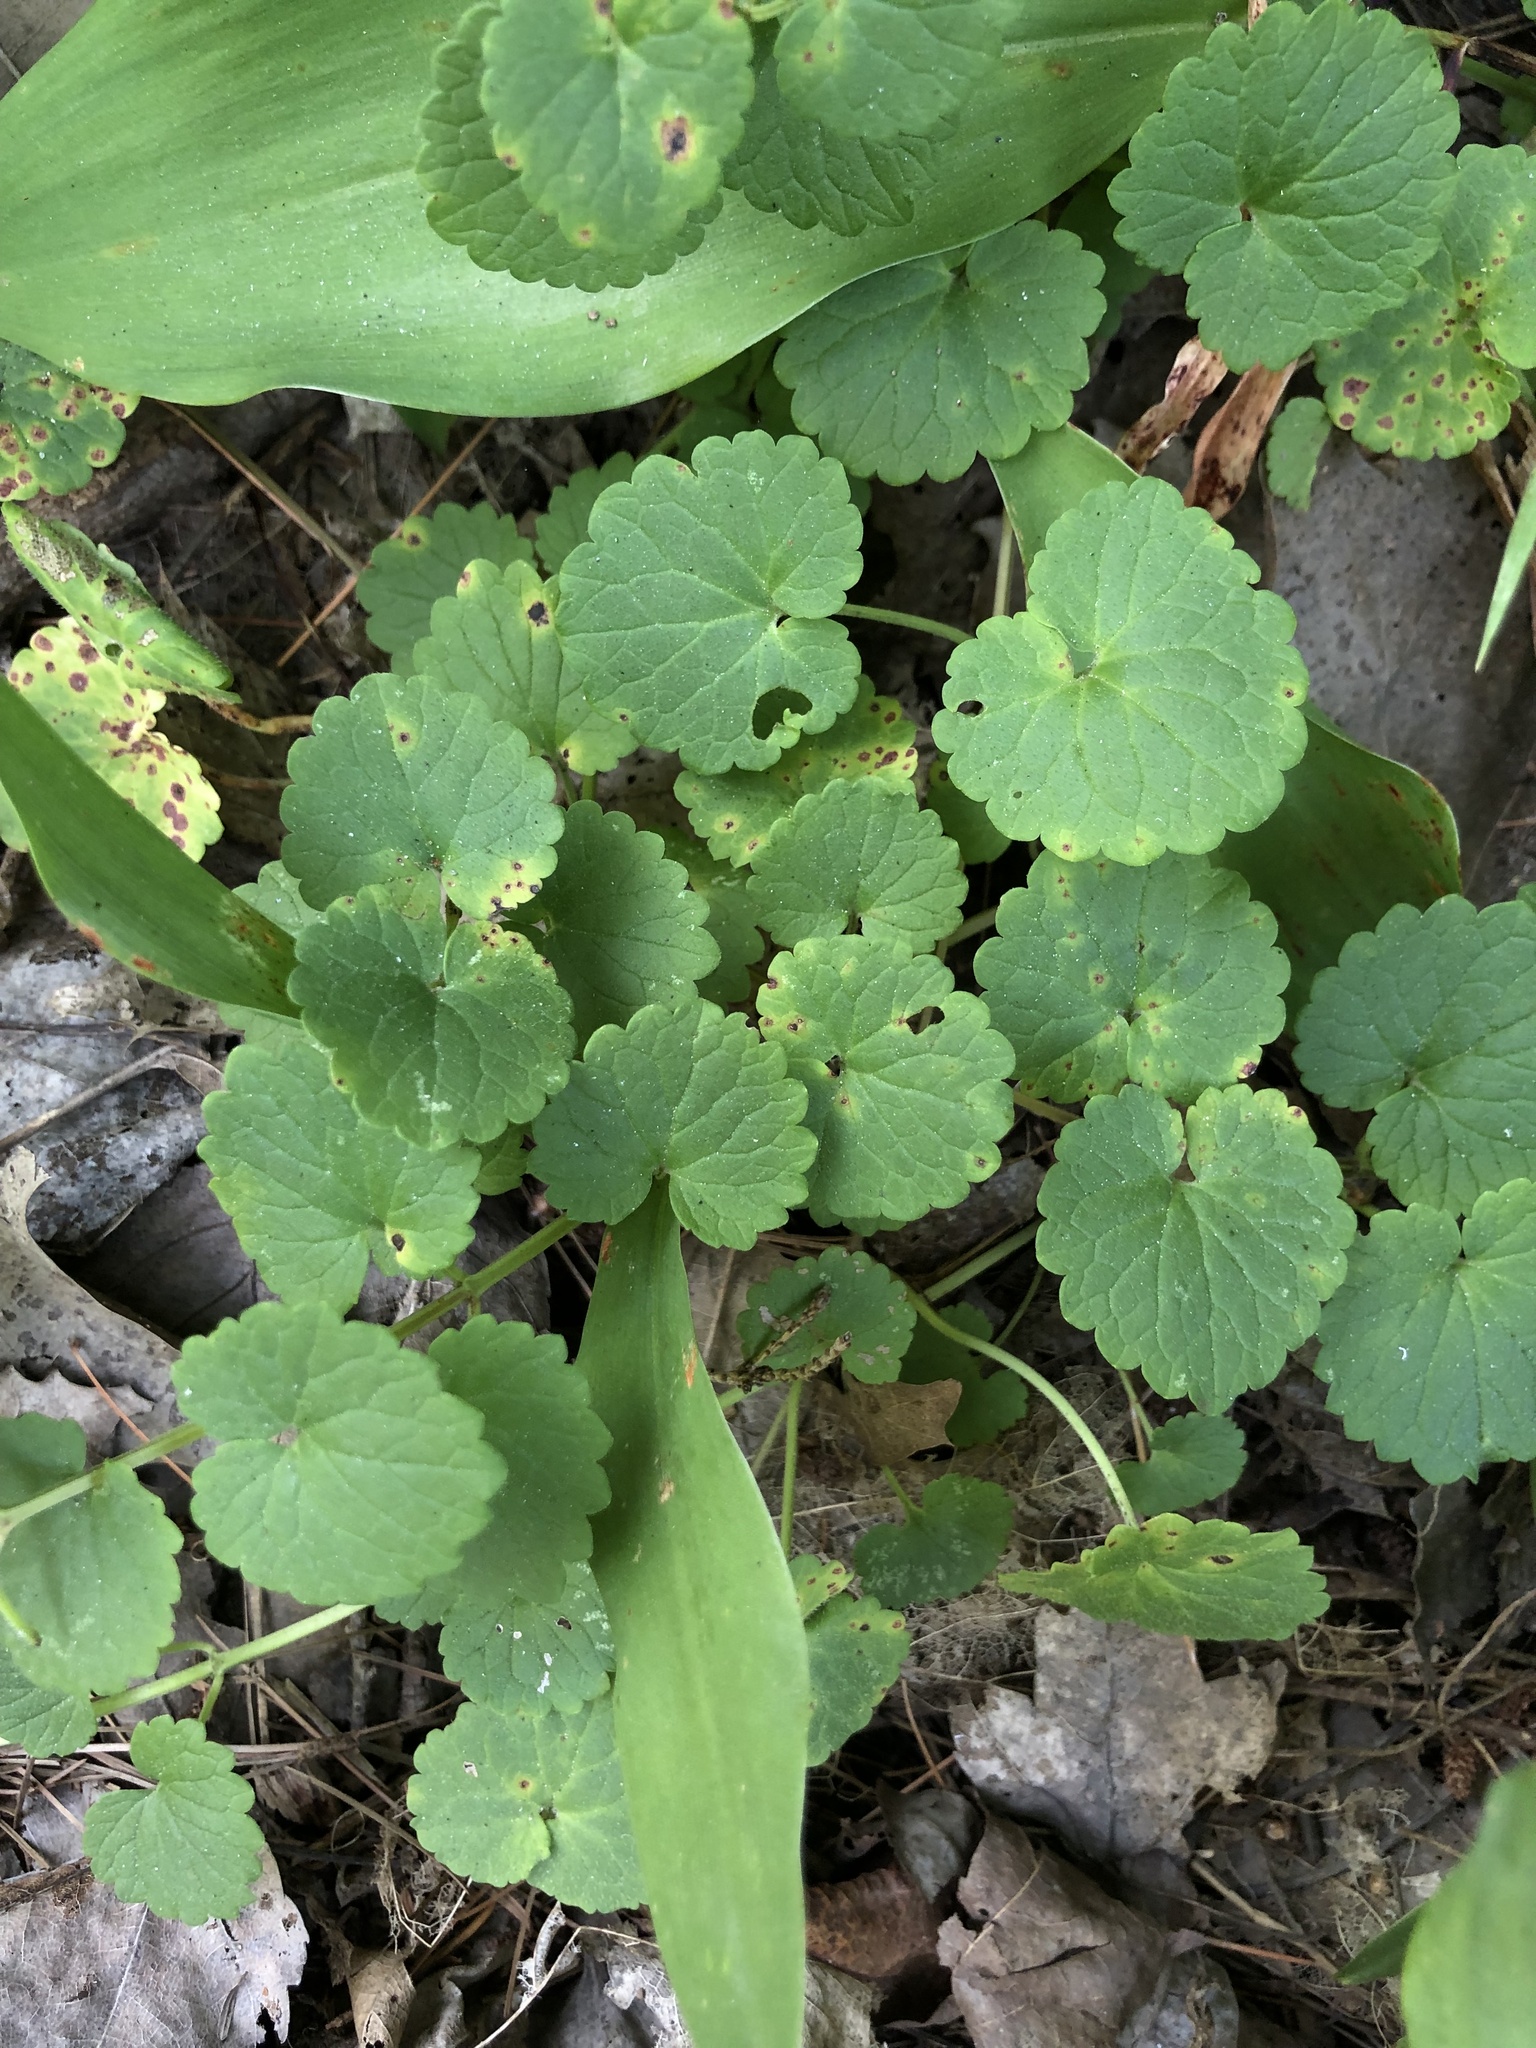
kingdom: Plantae
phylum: Tracheophyta
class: Magnoliopsida
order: Lamiales
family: Lamiaceae
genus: Glechoma
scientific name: Glechoma hederacea
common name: Ground ivy
